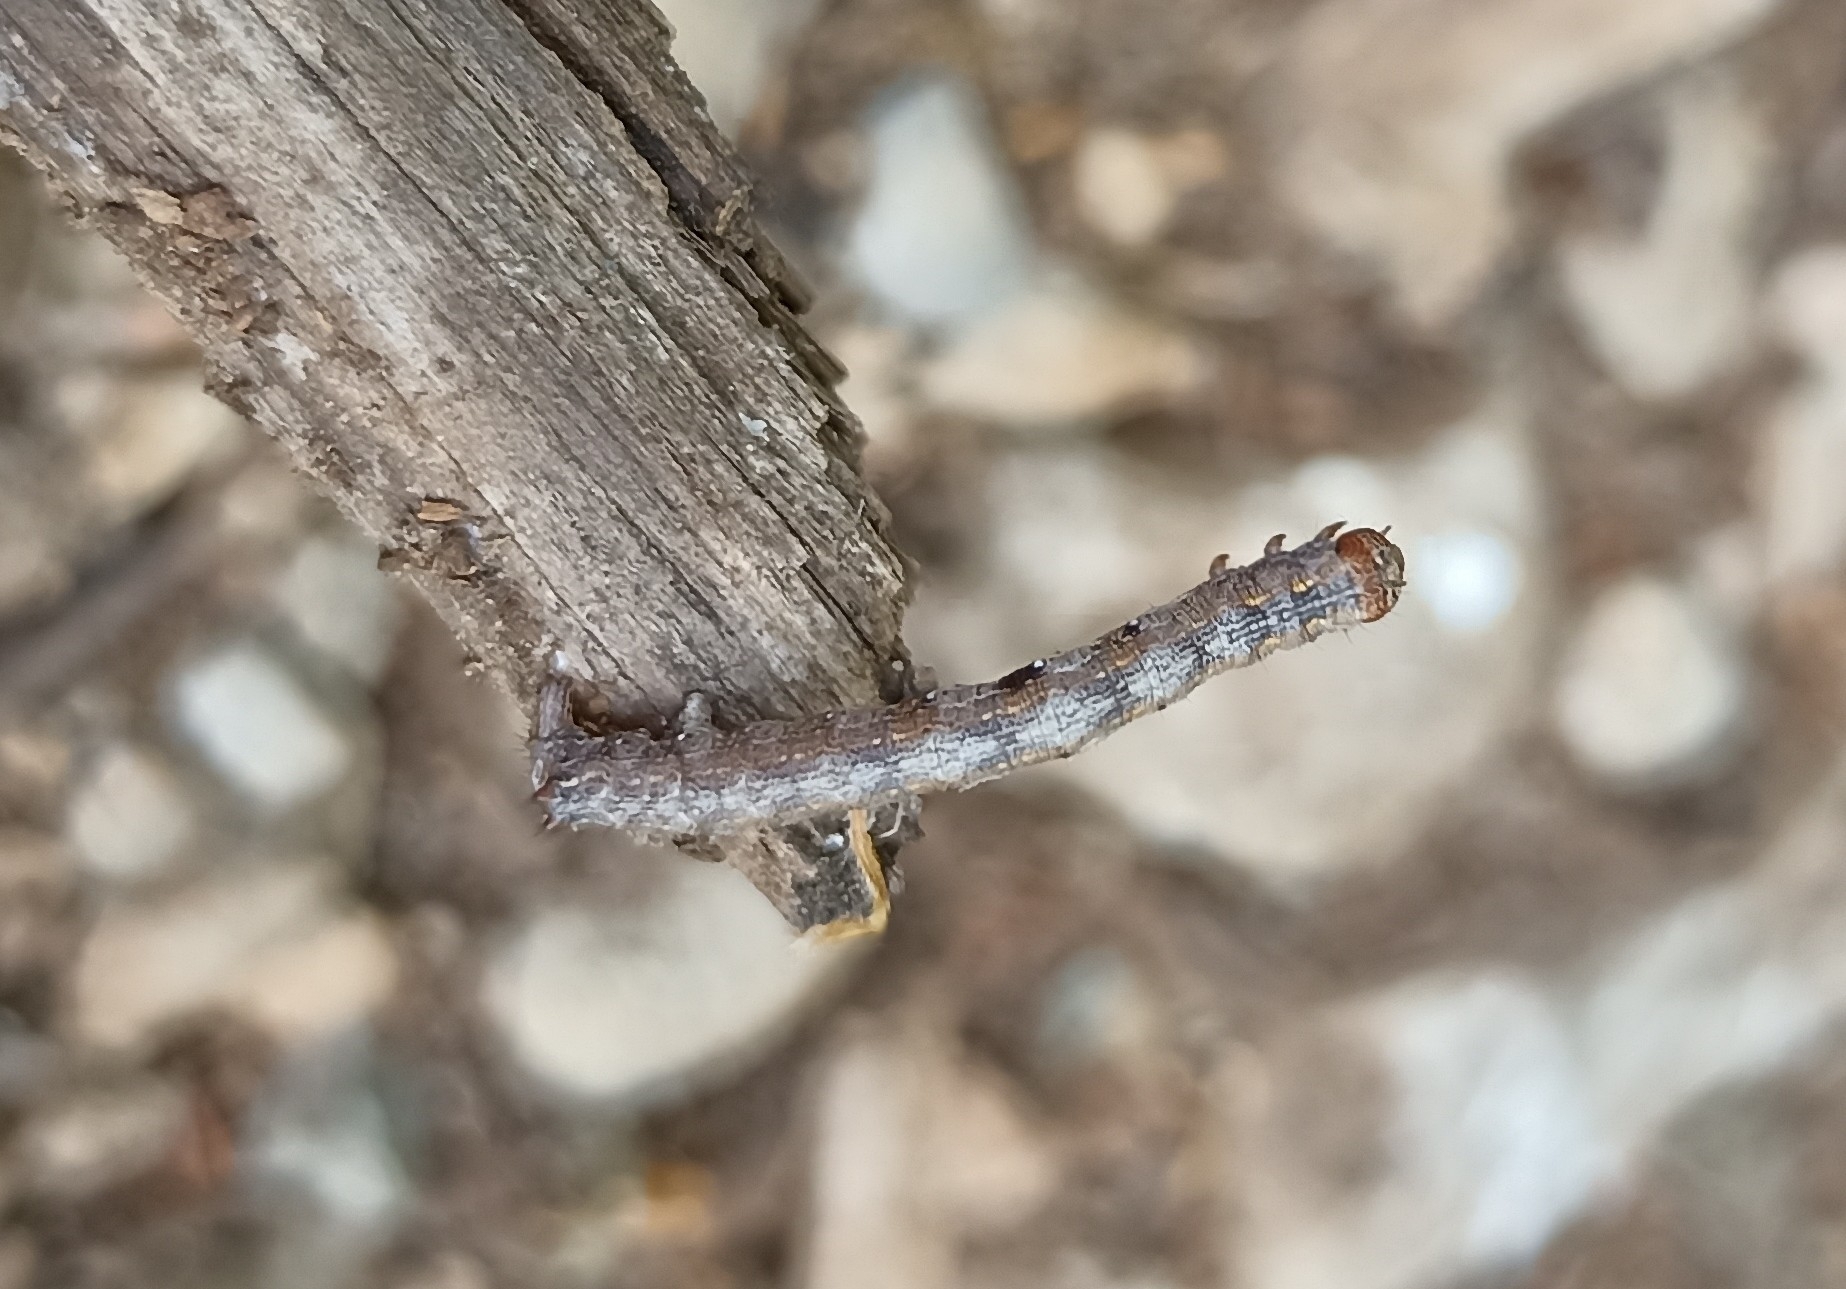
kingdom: Animalia
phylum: Arthropoda
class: Insecta
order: Lepidoptera
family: Geometridae
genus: Colotois
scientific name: Colotois pennaria
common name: Feathered thorn
